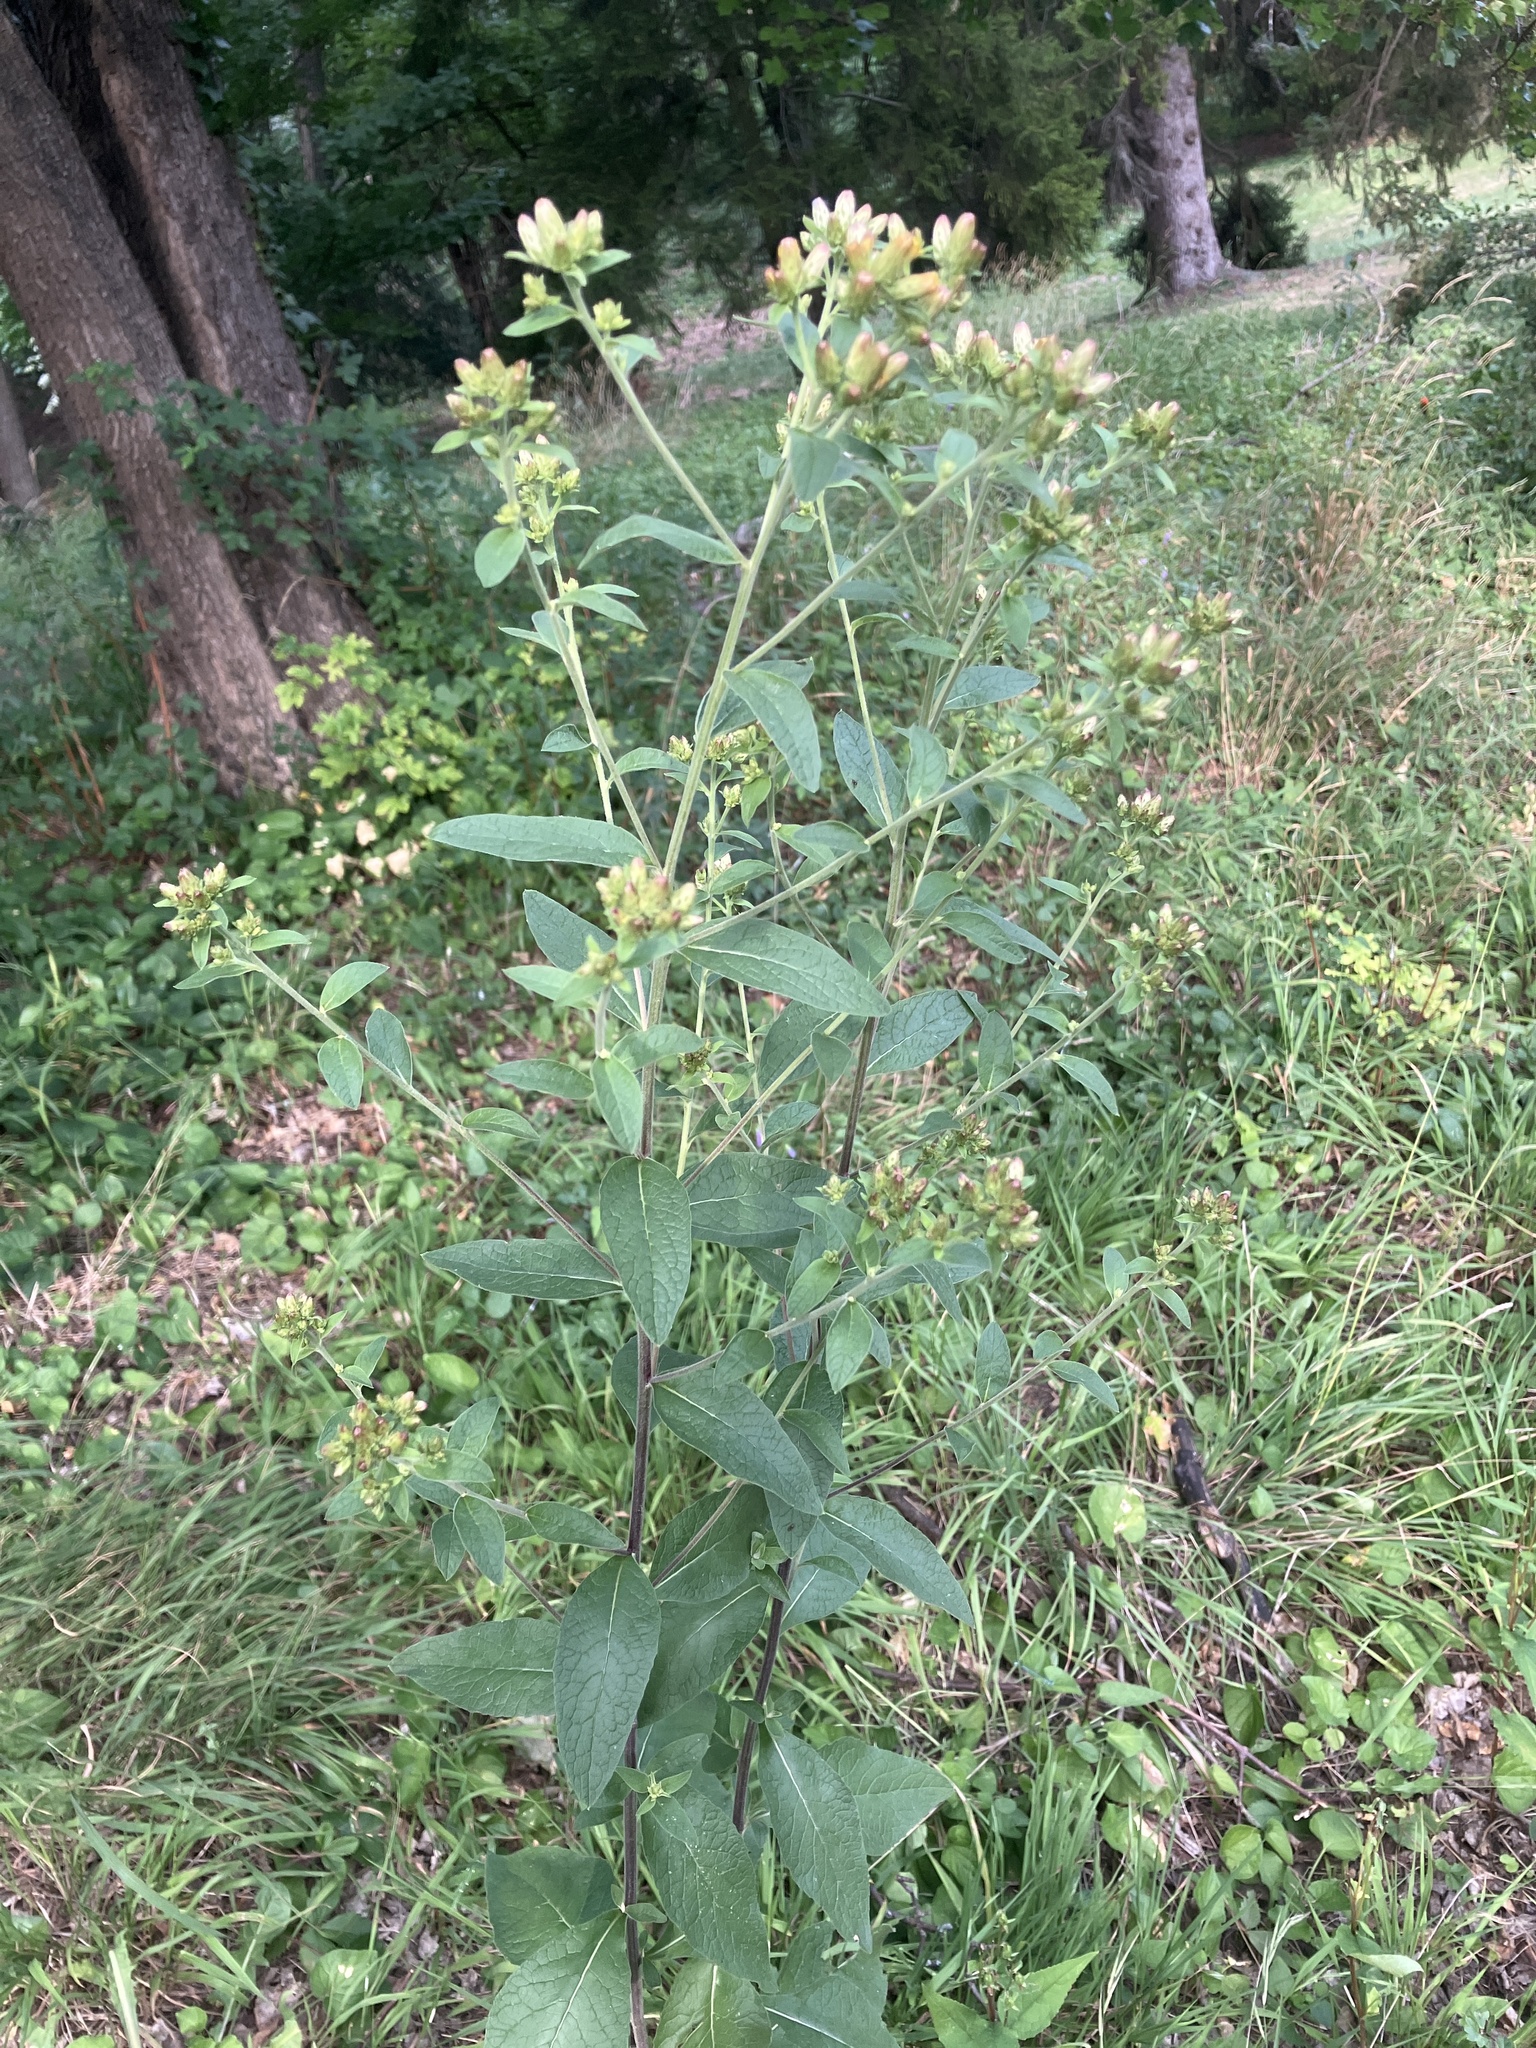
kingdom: Plantae
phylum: Tracheophyta
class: Magnoliopsida
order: Asterales
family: Asteraceae
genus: Pentanema
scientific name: Pentanema squarrosum
